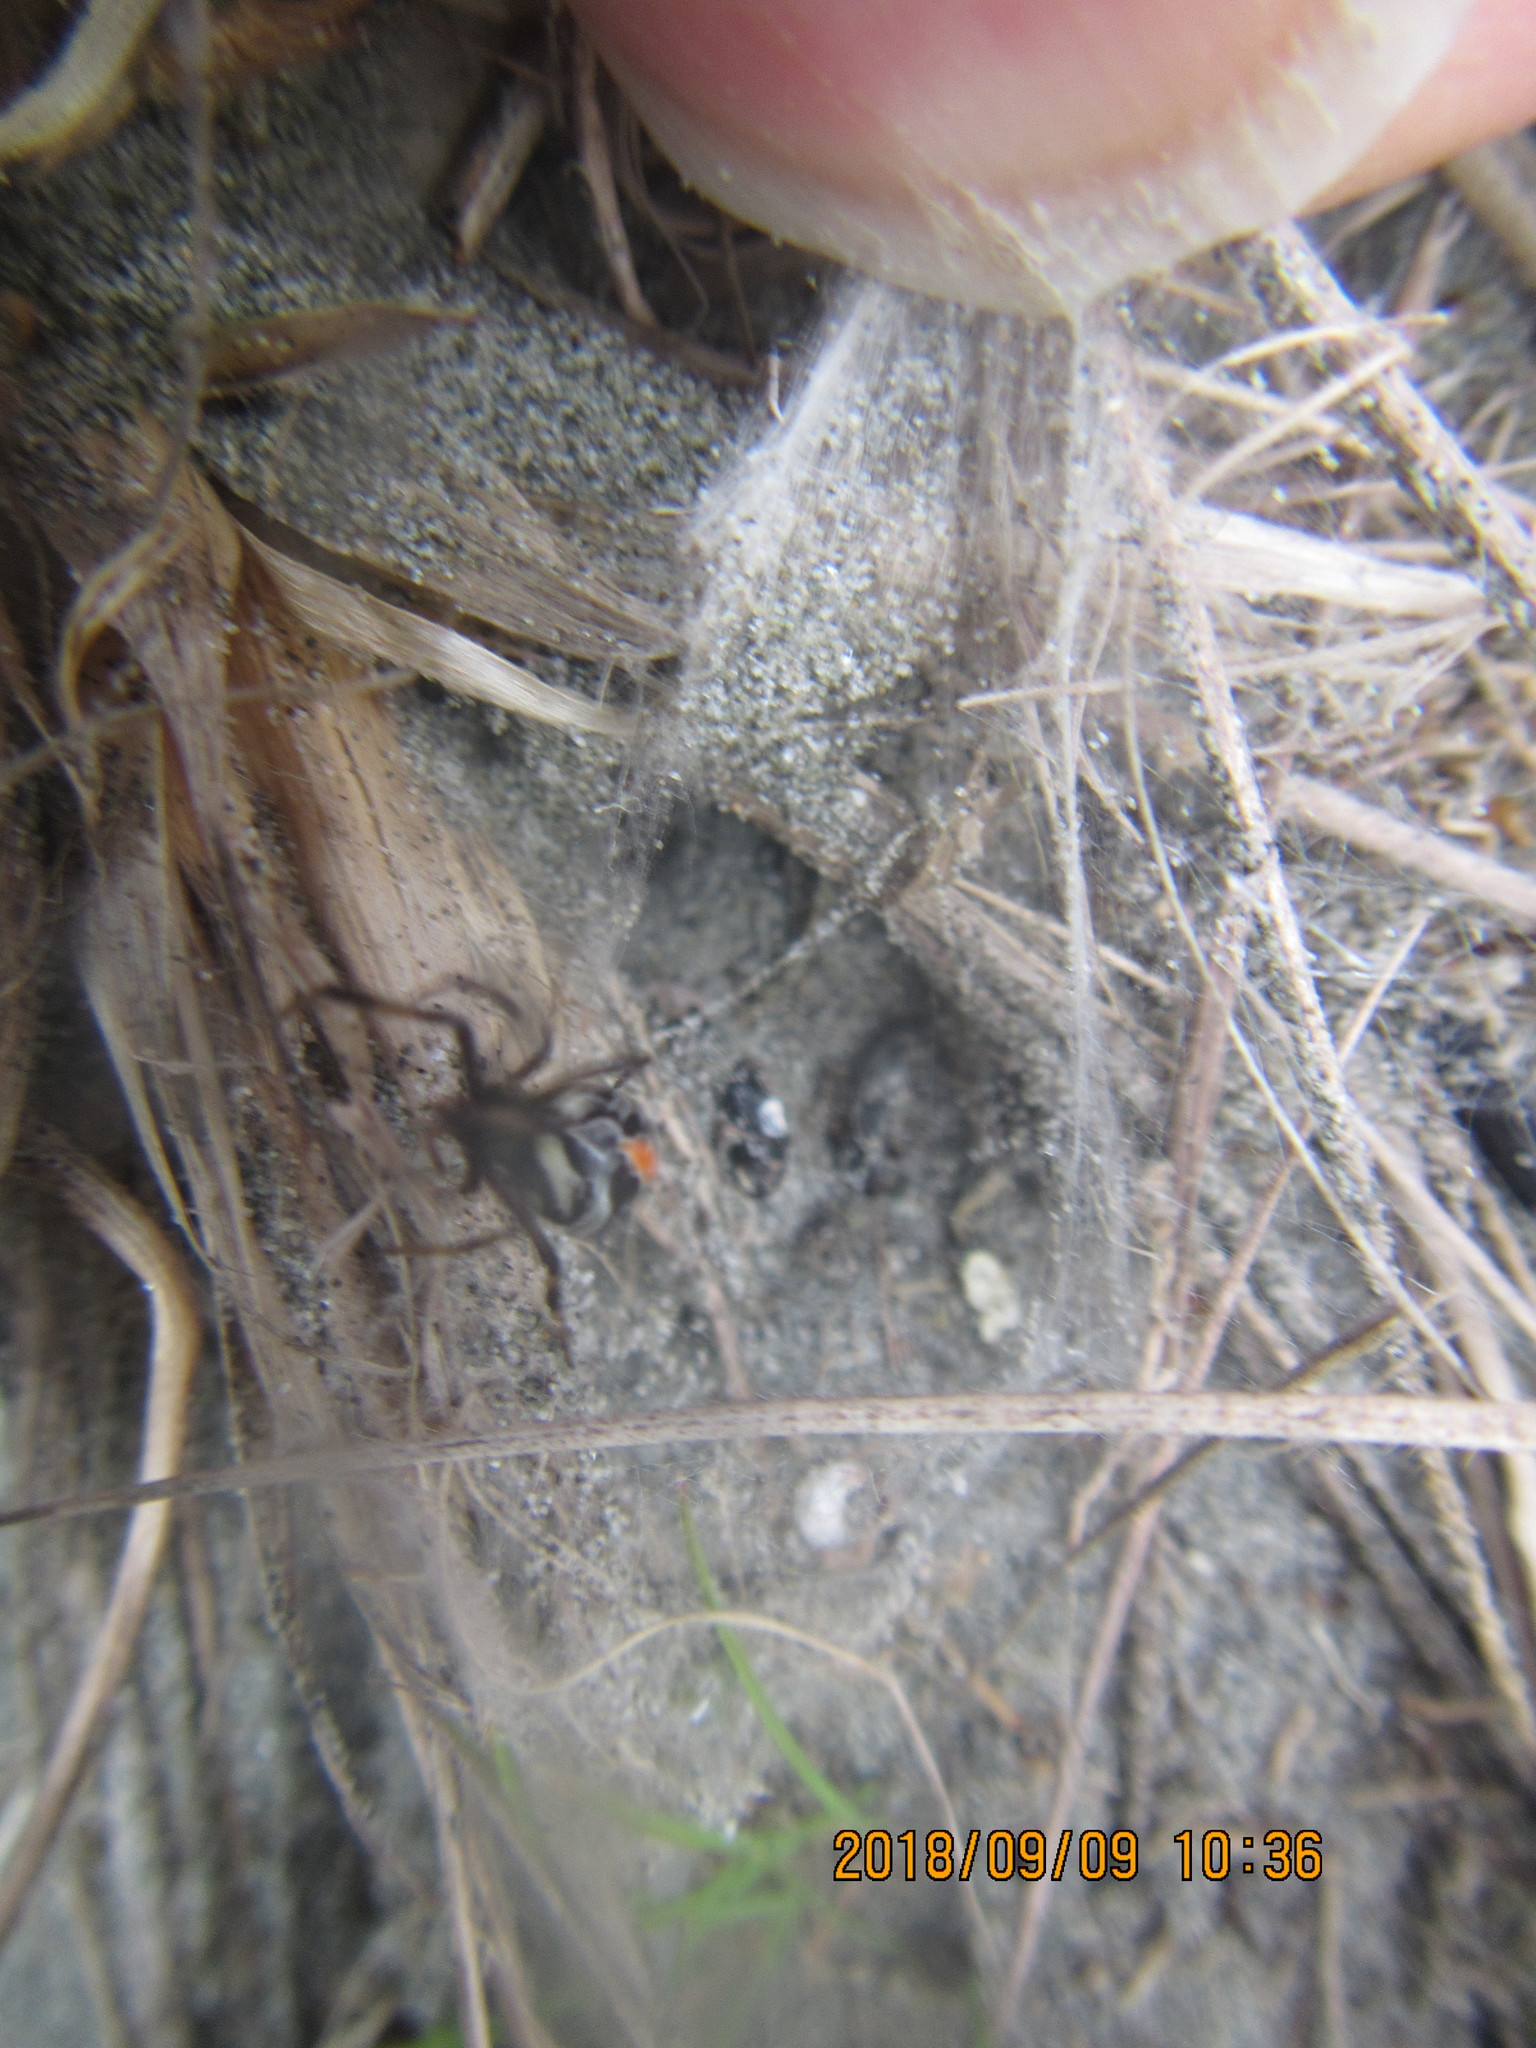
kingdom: Animalia
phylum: Arthropoda
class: Arachnida
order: Araneae
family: Theridiidae
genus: Latrodectus
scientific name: Latrodectus katipo
